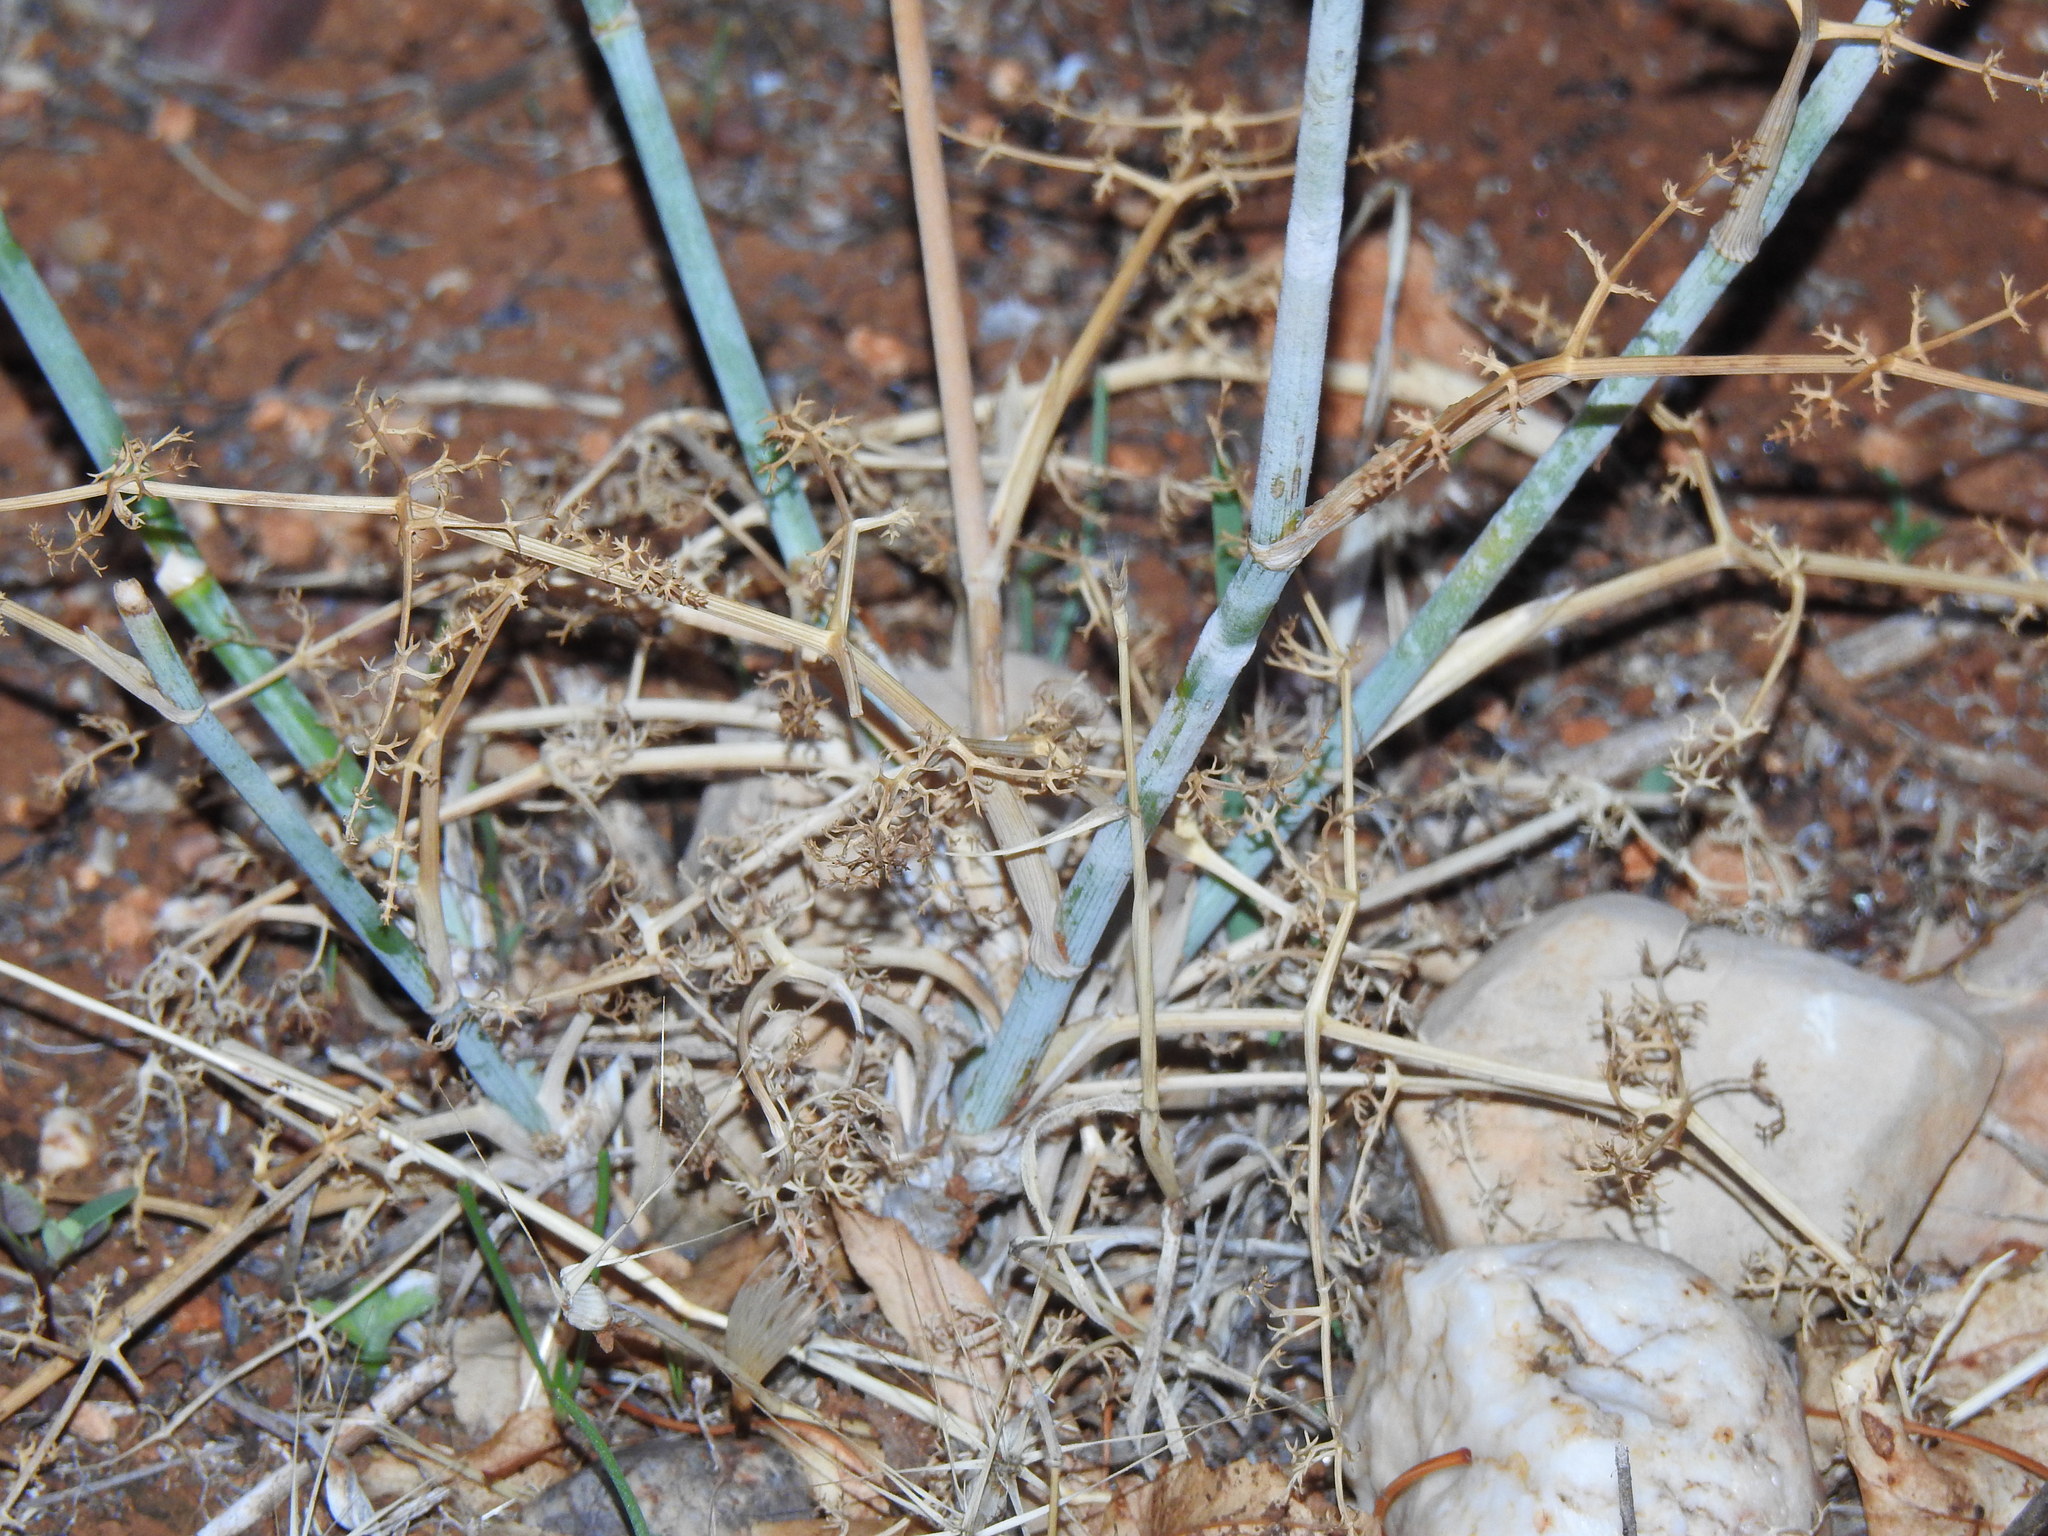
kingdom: Plantae
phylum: Tracheophyta
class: Magnoliopsida
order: Apiales
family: Apiaceae
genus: Foeniculum
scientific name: Foeniculum vulgare
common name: Fennel
